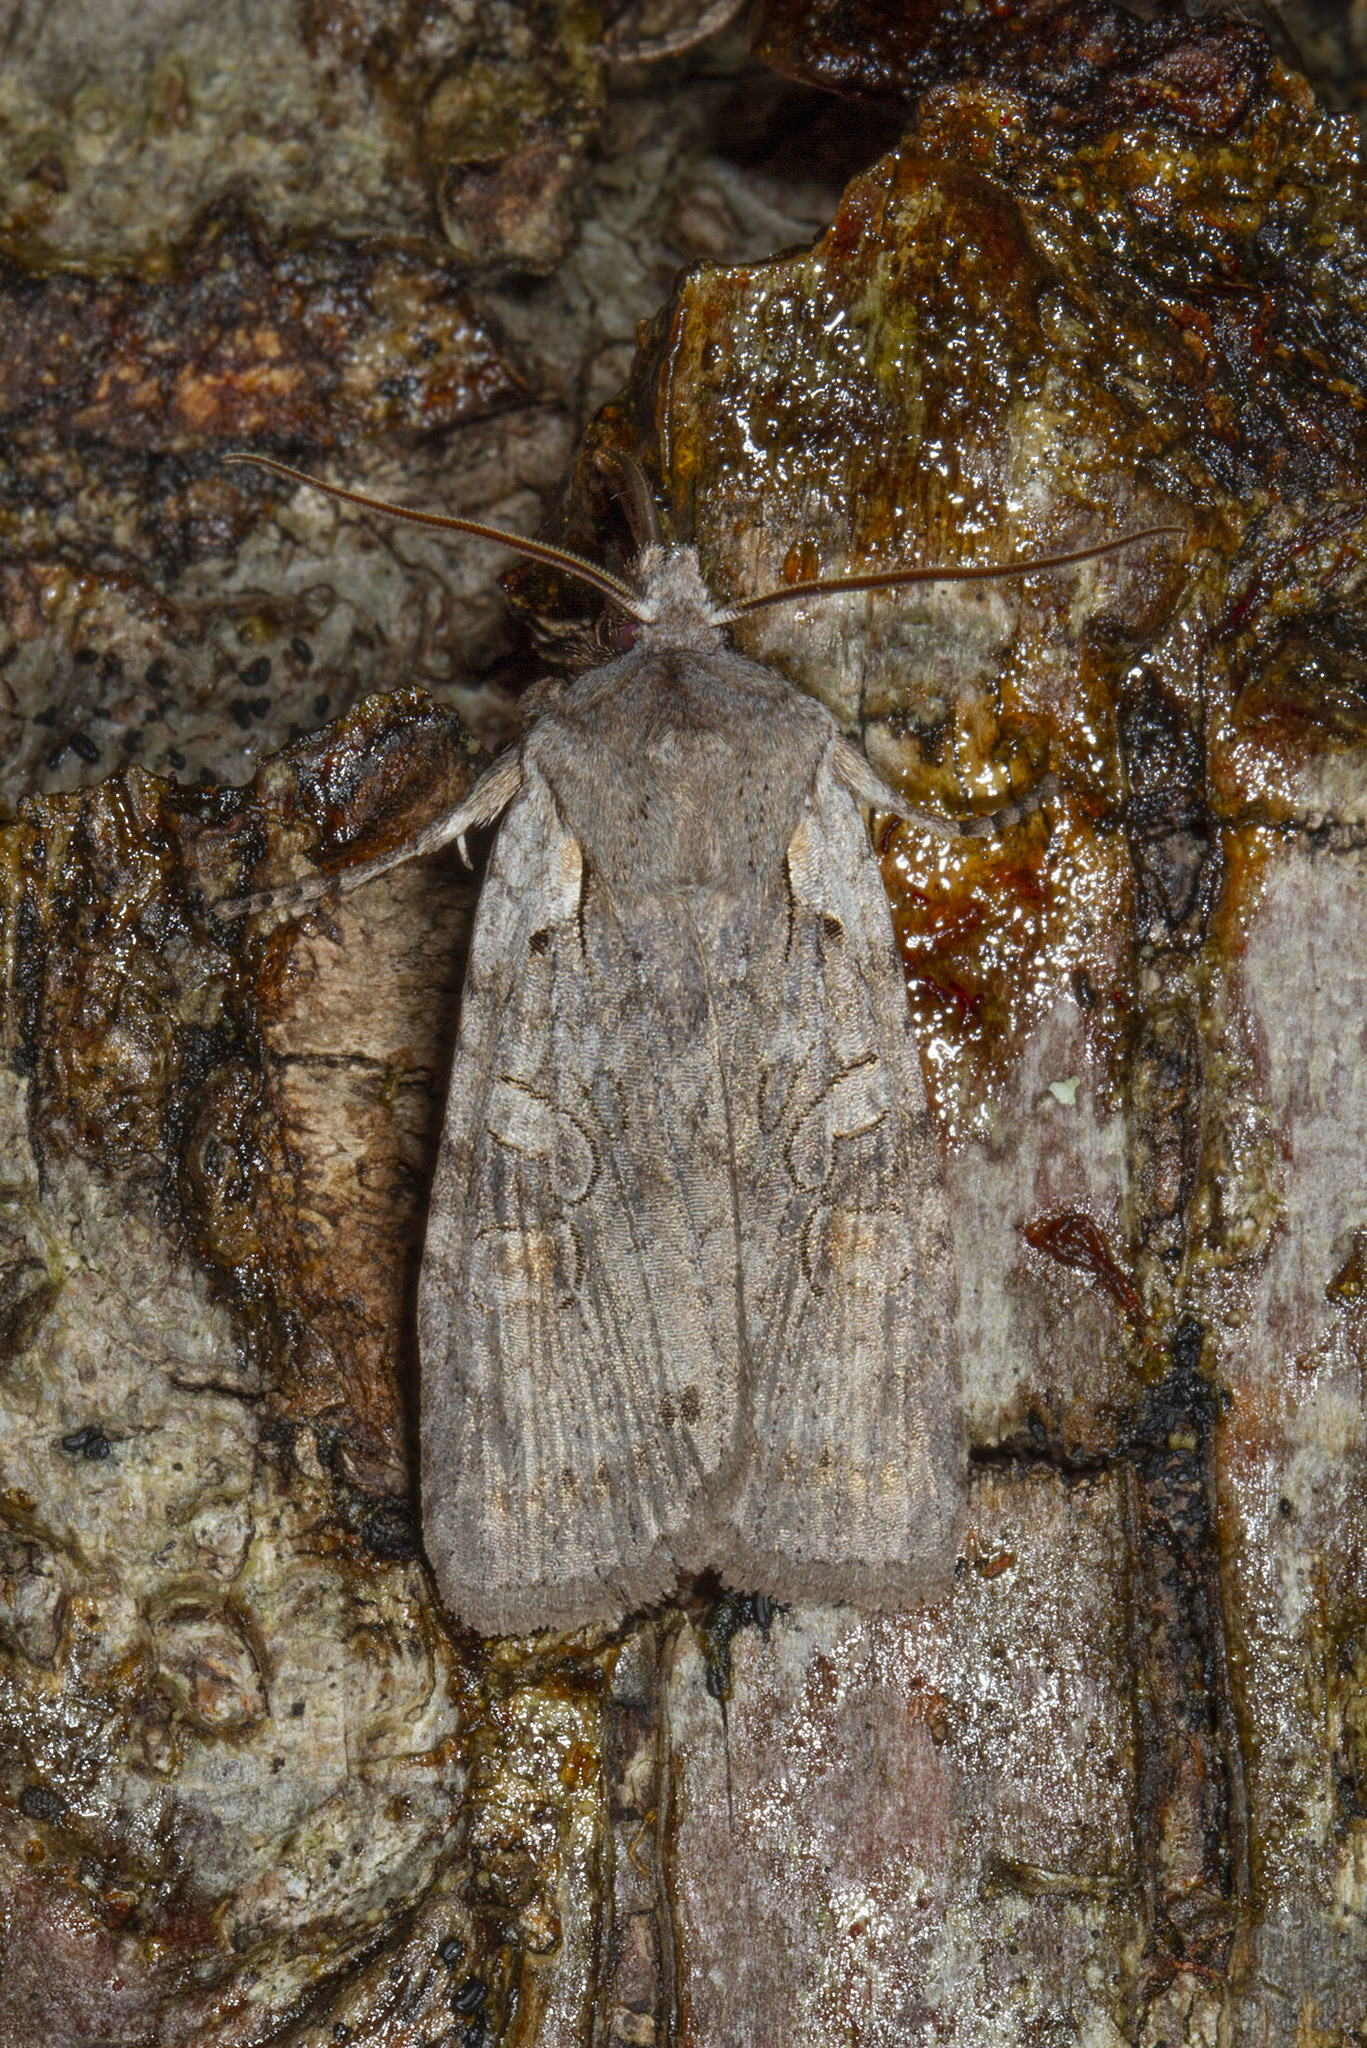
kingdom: Animalia
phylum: Arthropoda
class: Insecta
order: Lepidoptera
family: Noctuidae
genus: Lithophane
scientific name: Lithophane antennata
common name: Ashen pinion
